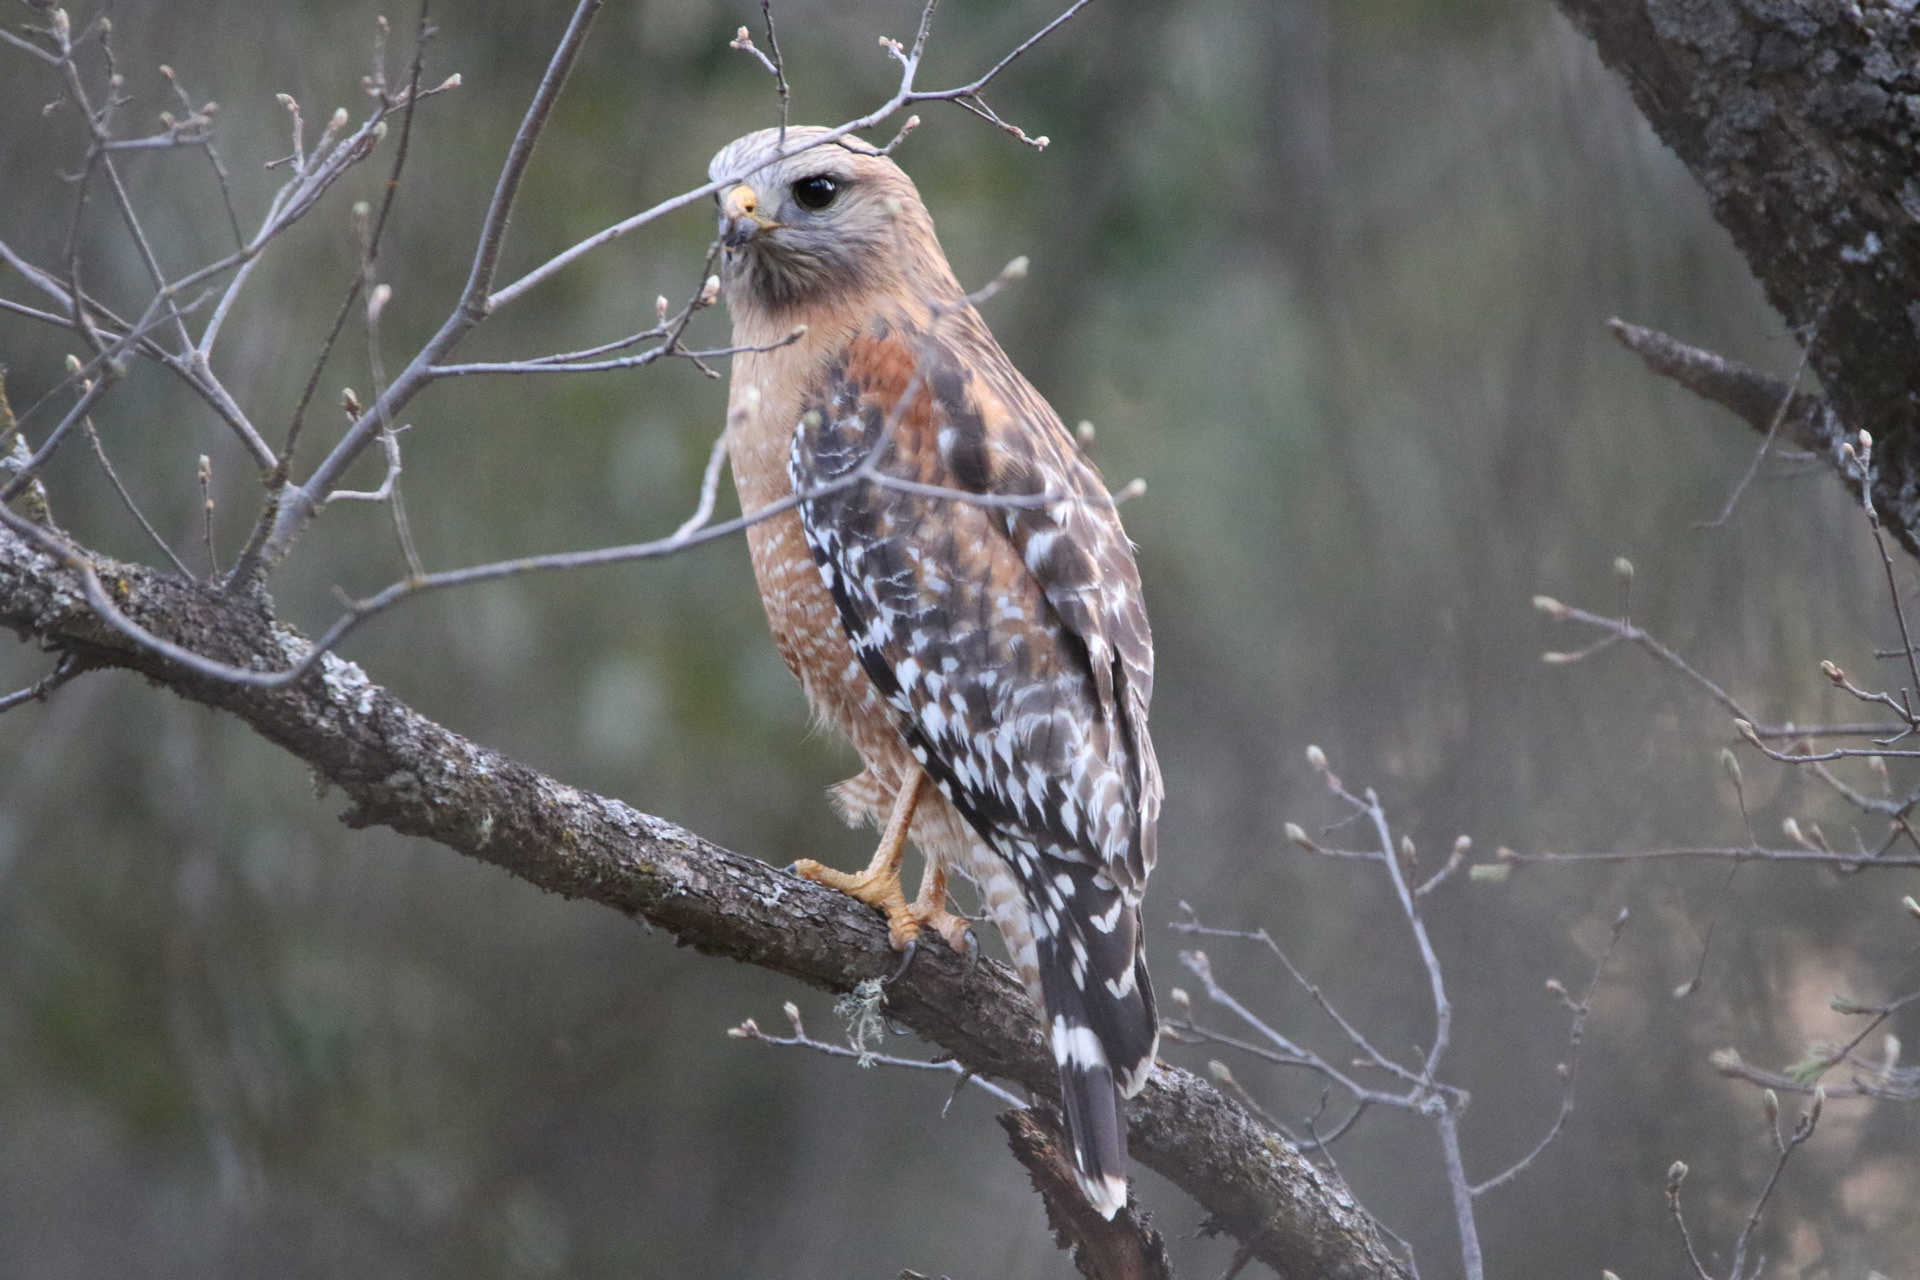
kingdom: Animalia
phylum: Chordata
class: Aves
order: Accipitriformes
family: Accipitridae
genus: Buteo
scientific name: Buteo lineatus
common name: Red-shouldered hawk
